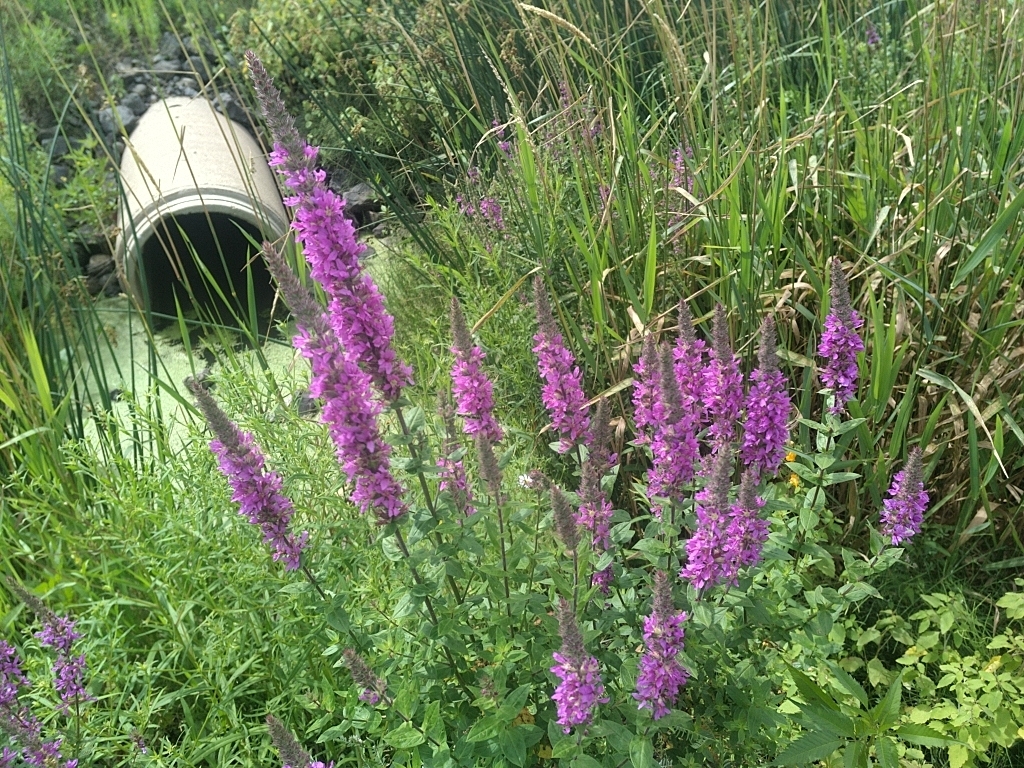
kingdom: Plantae
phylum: Tracheophyta
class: Magnoliopsida
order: Myrtales
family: Lythraceae
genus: Lythrum
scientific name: Lythrum salicaria
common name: Purple loosestrife
